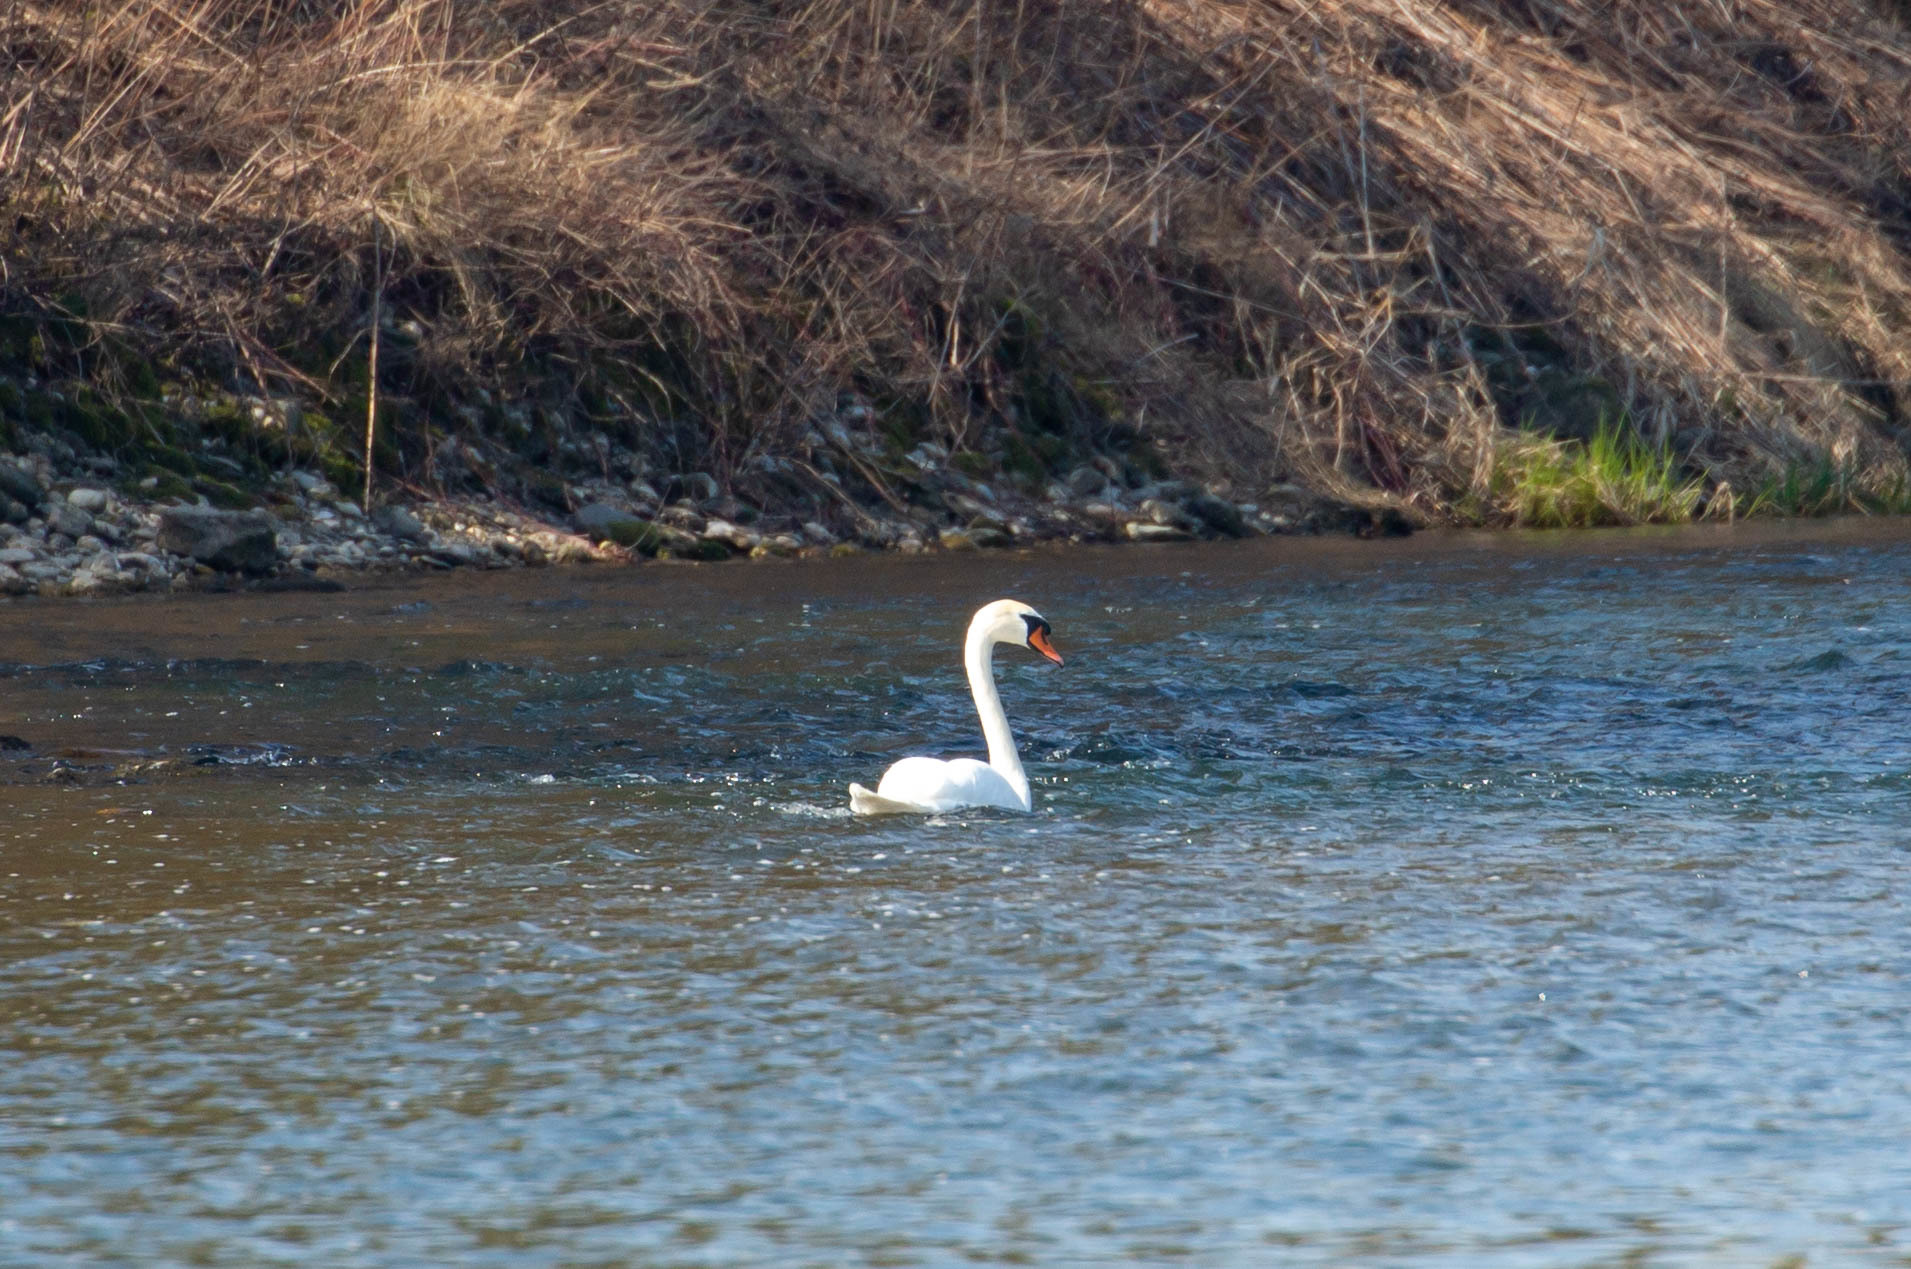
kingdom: Animalia
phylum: Chordata
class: Aves
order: Anseriformes
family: Anatidae
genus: Cygnus
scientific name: Cygnus olor
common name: Mute swan
